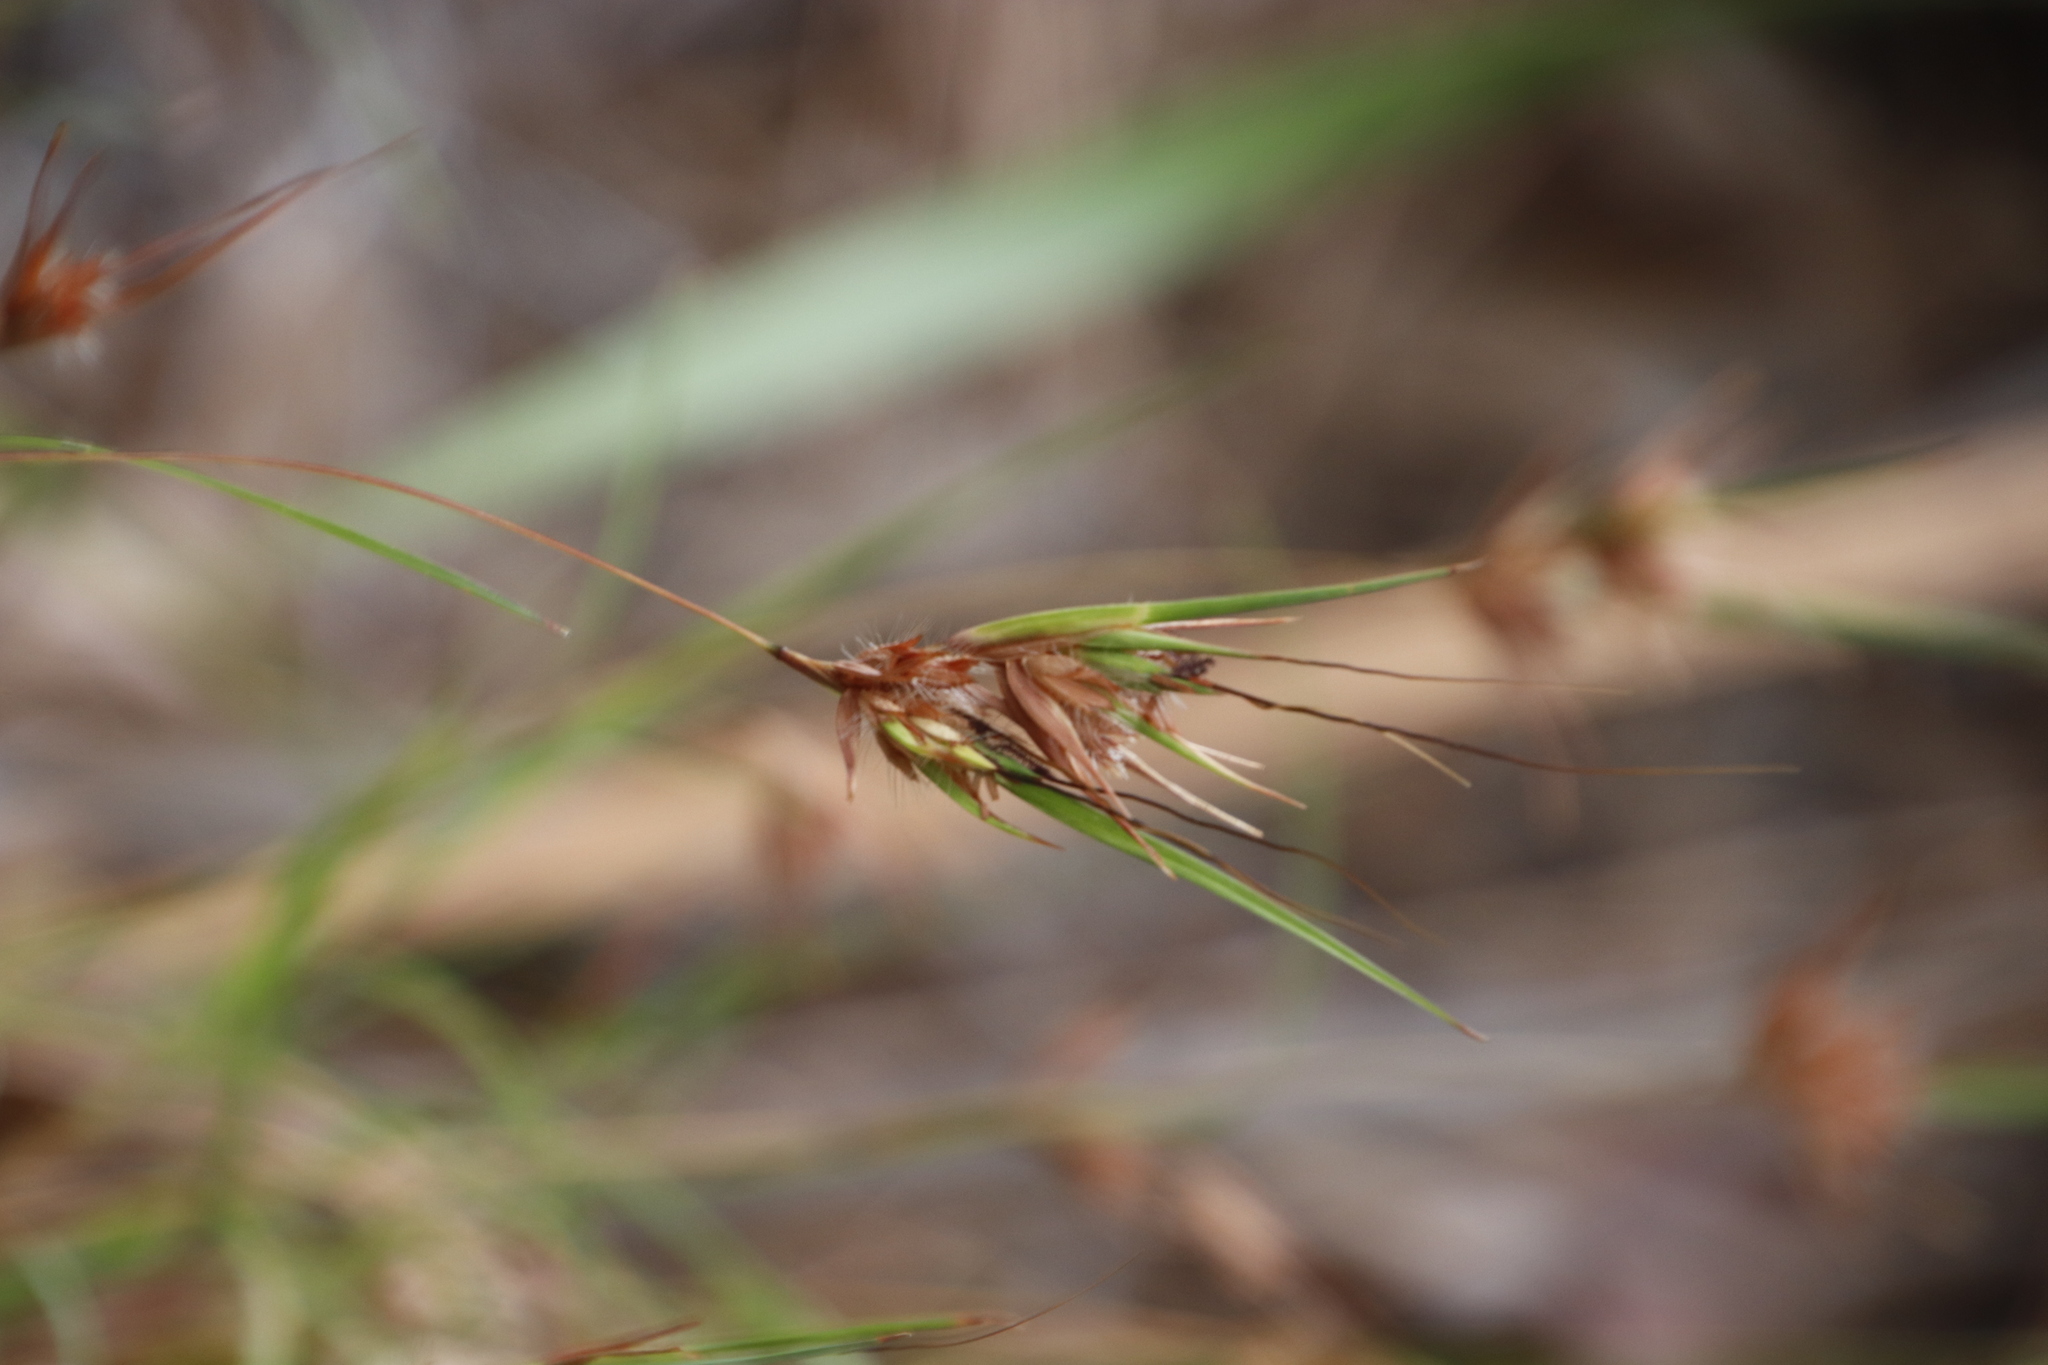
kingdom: Plantae
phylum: Tracheophyta
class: Liliopsida
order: Poales
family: Poaceae
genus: Themeda
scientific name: Themeda triandra
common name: Kangaroo grass
